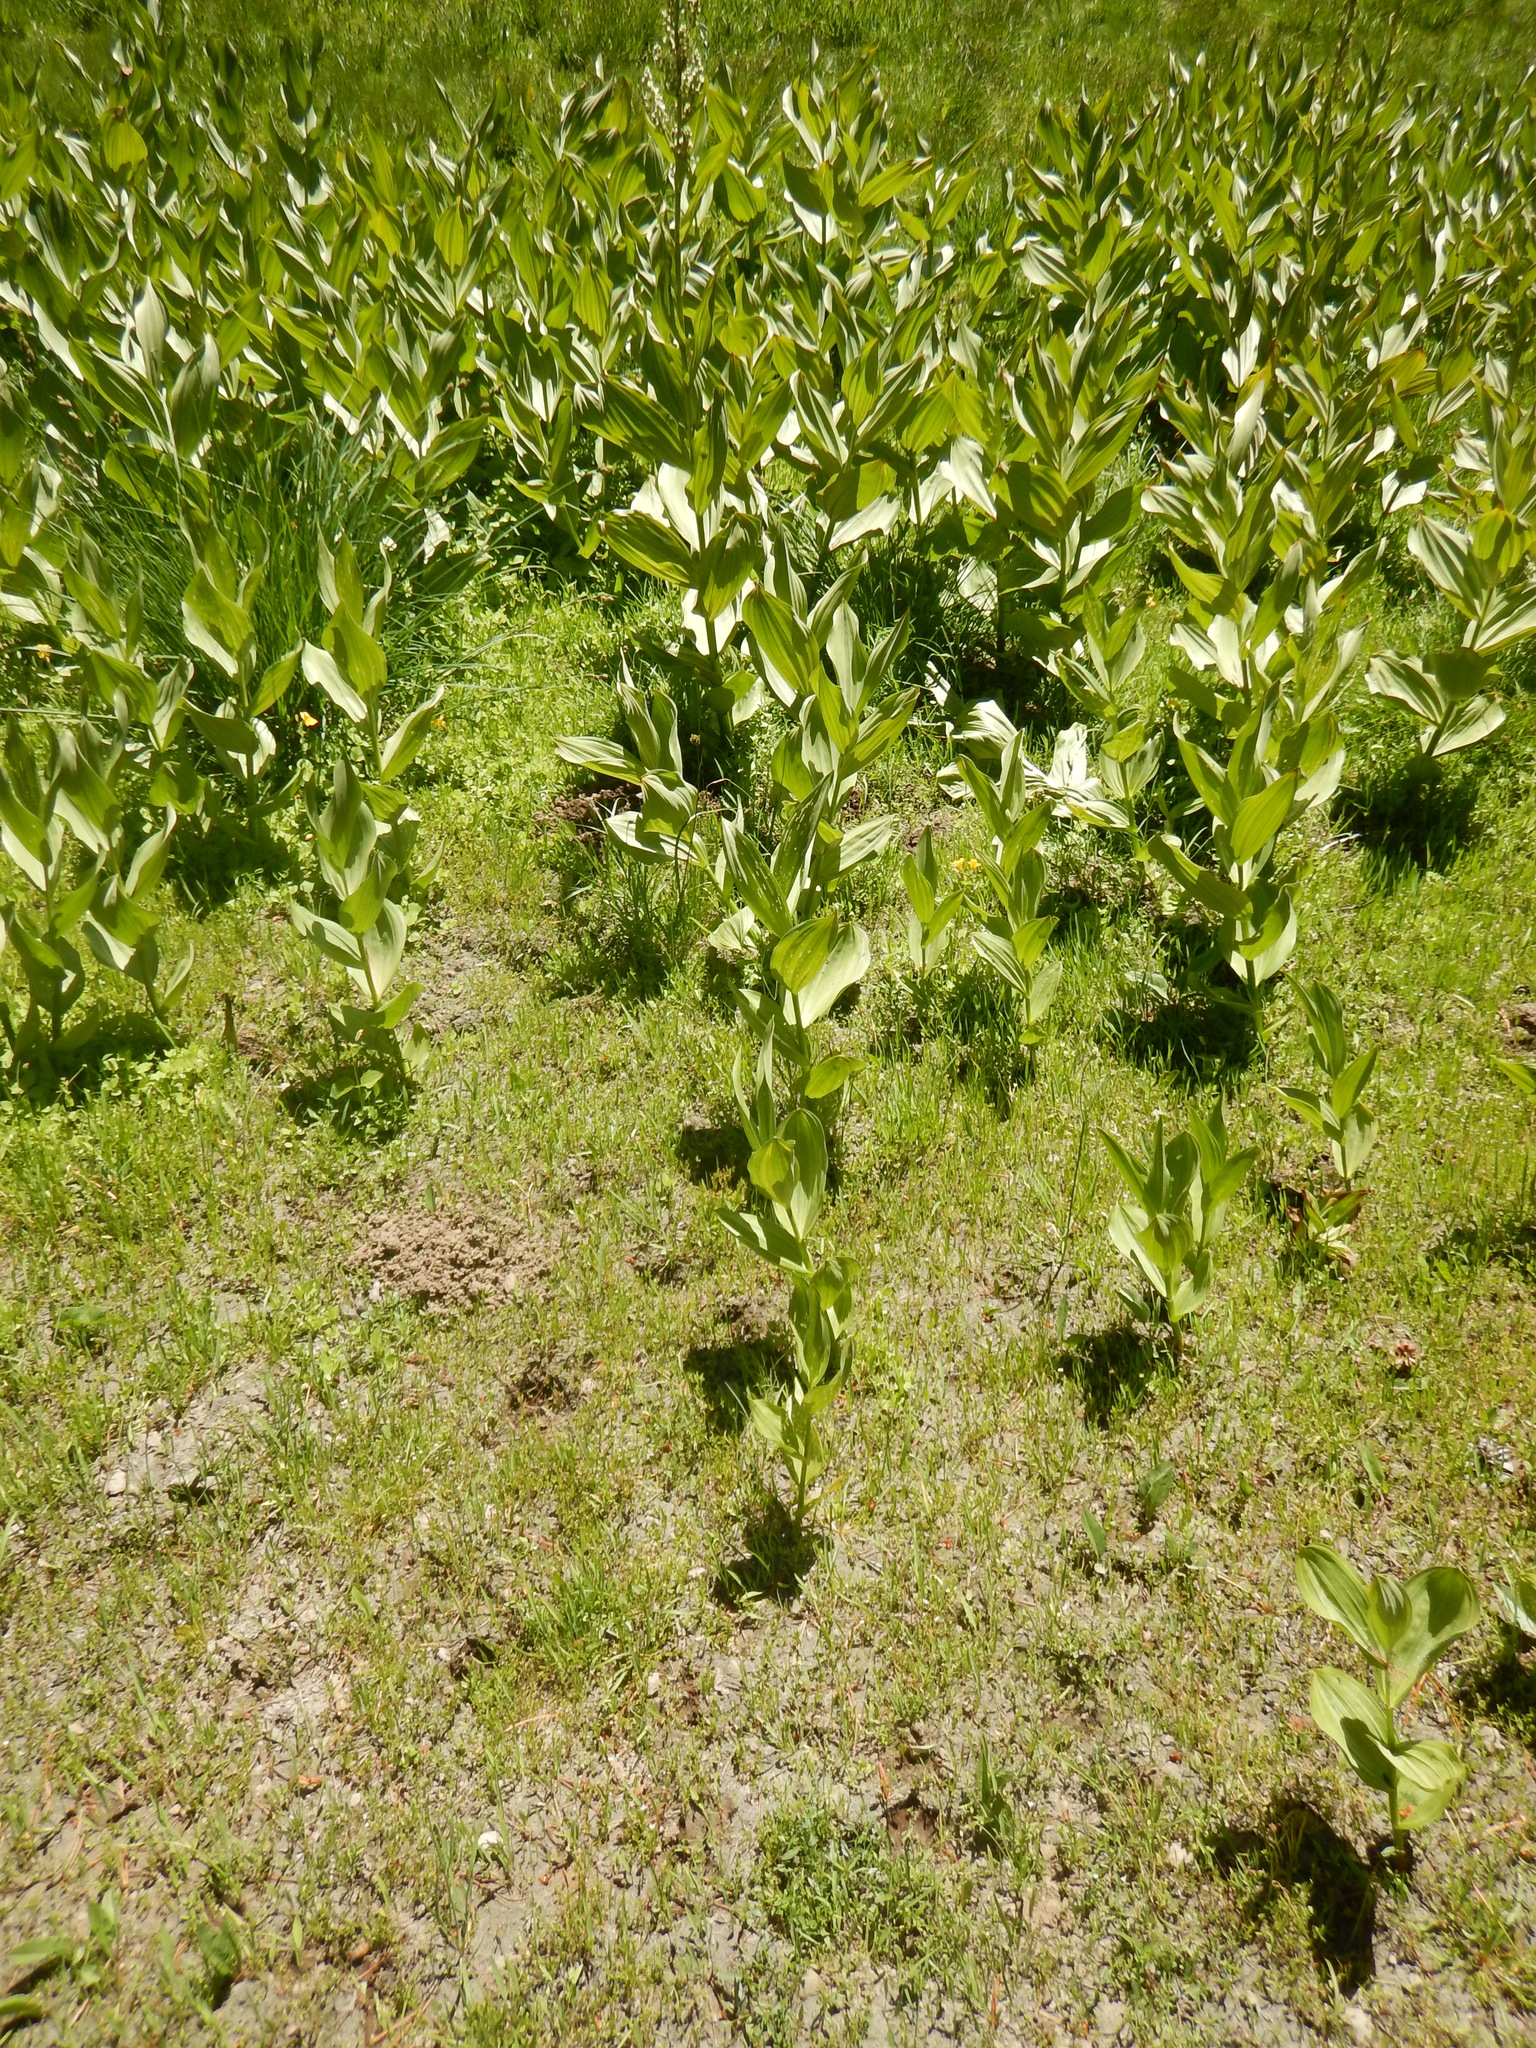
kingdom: Plantae
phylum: Tracheophyta
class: Liliopsida
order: Liliales
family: Melanthiaceae
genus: Veratrum
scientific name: Veratrum californicum
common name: California veratrum
